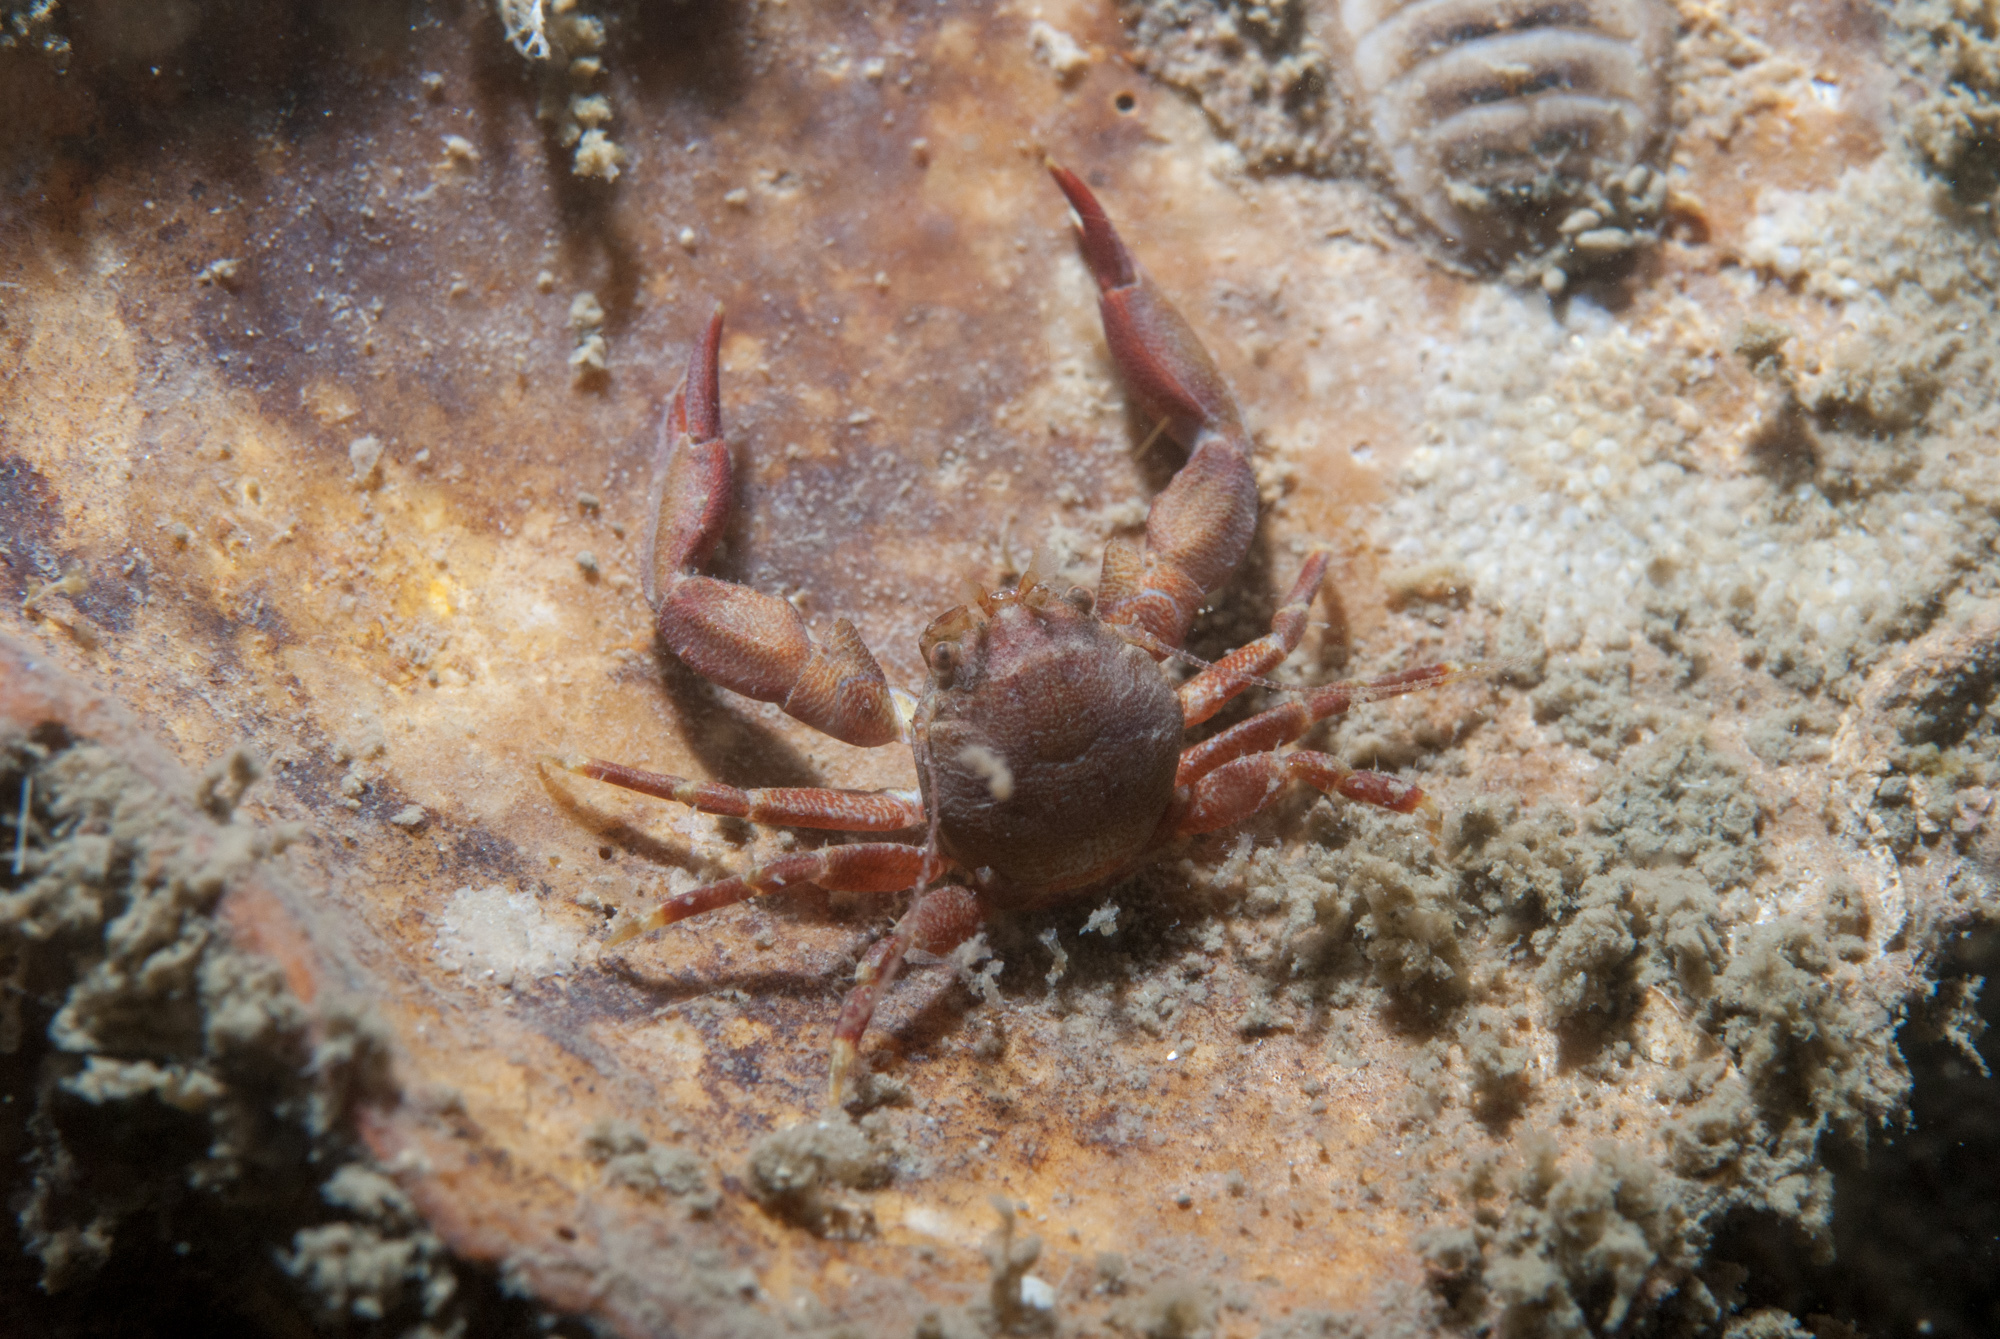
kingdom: Animalia
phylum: Arthropoda
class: Malacostraca
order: Decapoda
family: Porcellanidae
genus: Pisidia
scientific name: Pisidia longicornis
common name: Long clawed porcelain crab
